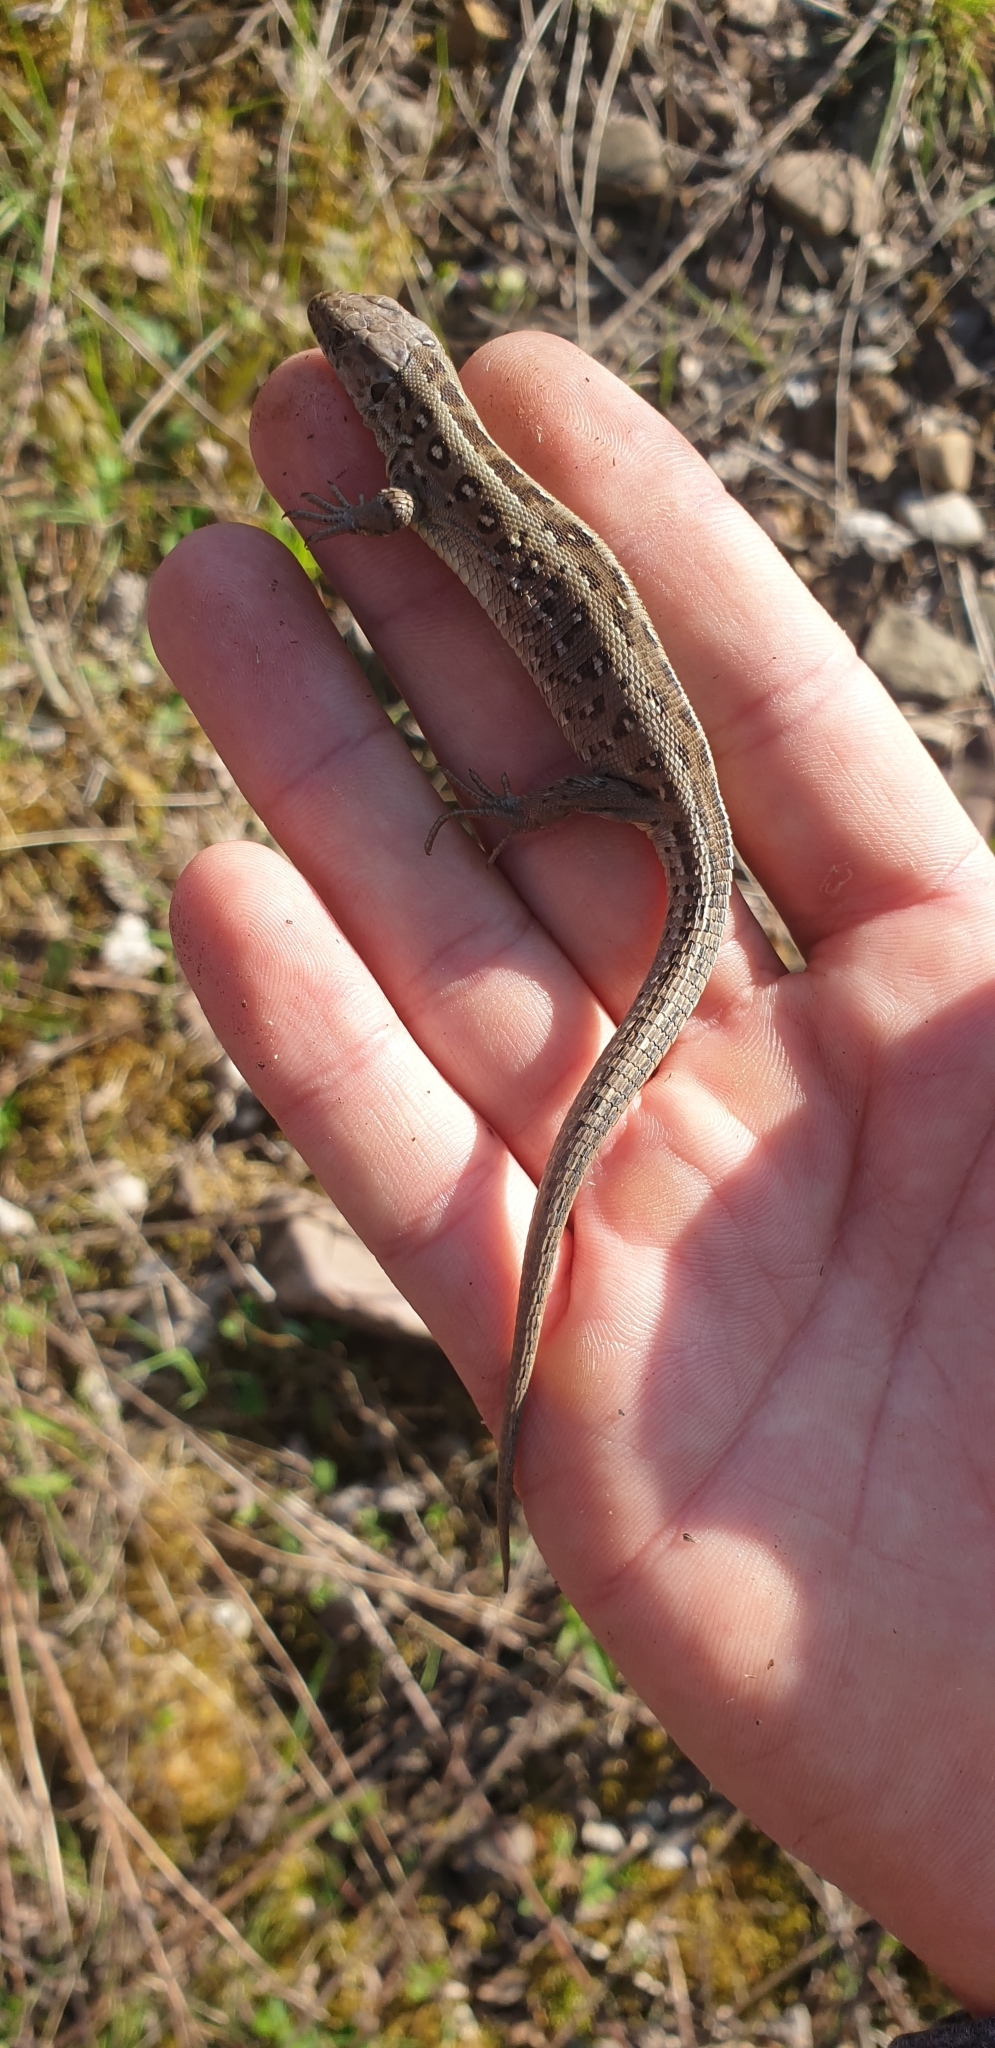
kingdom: Animalia
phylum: Chordata
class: Squamata
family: Lacertidae
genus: Lacerta
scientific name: Lacerta agilis
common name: Sand lizard
